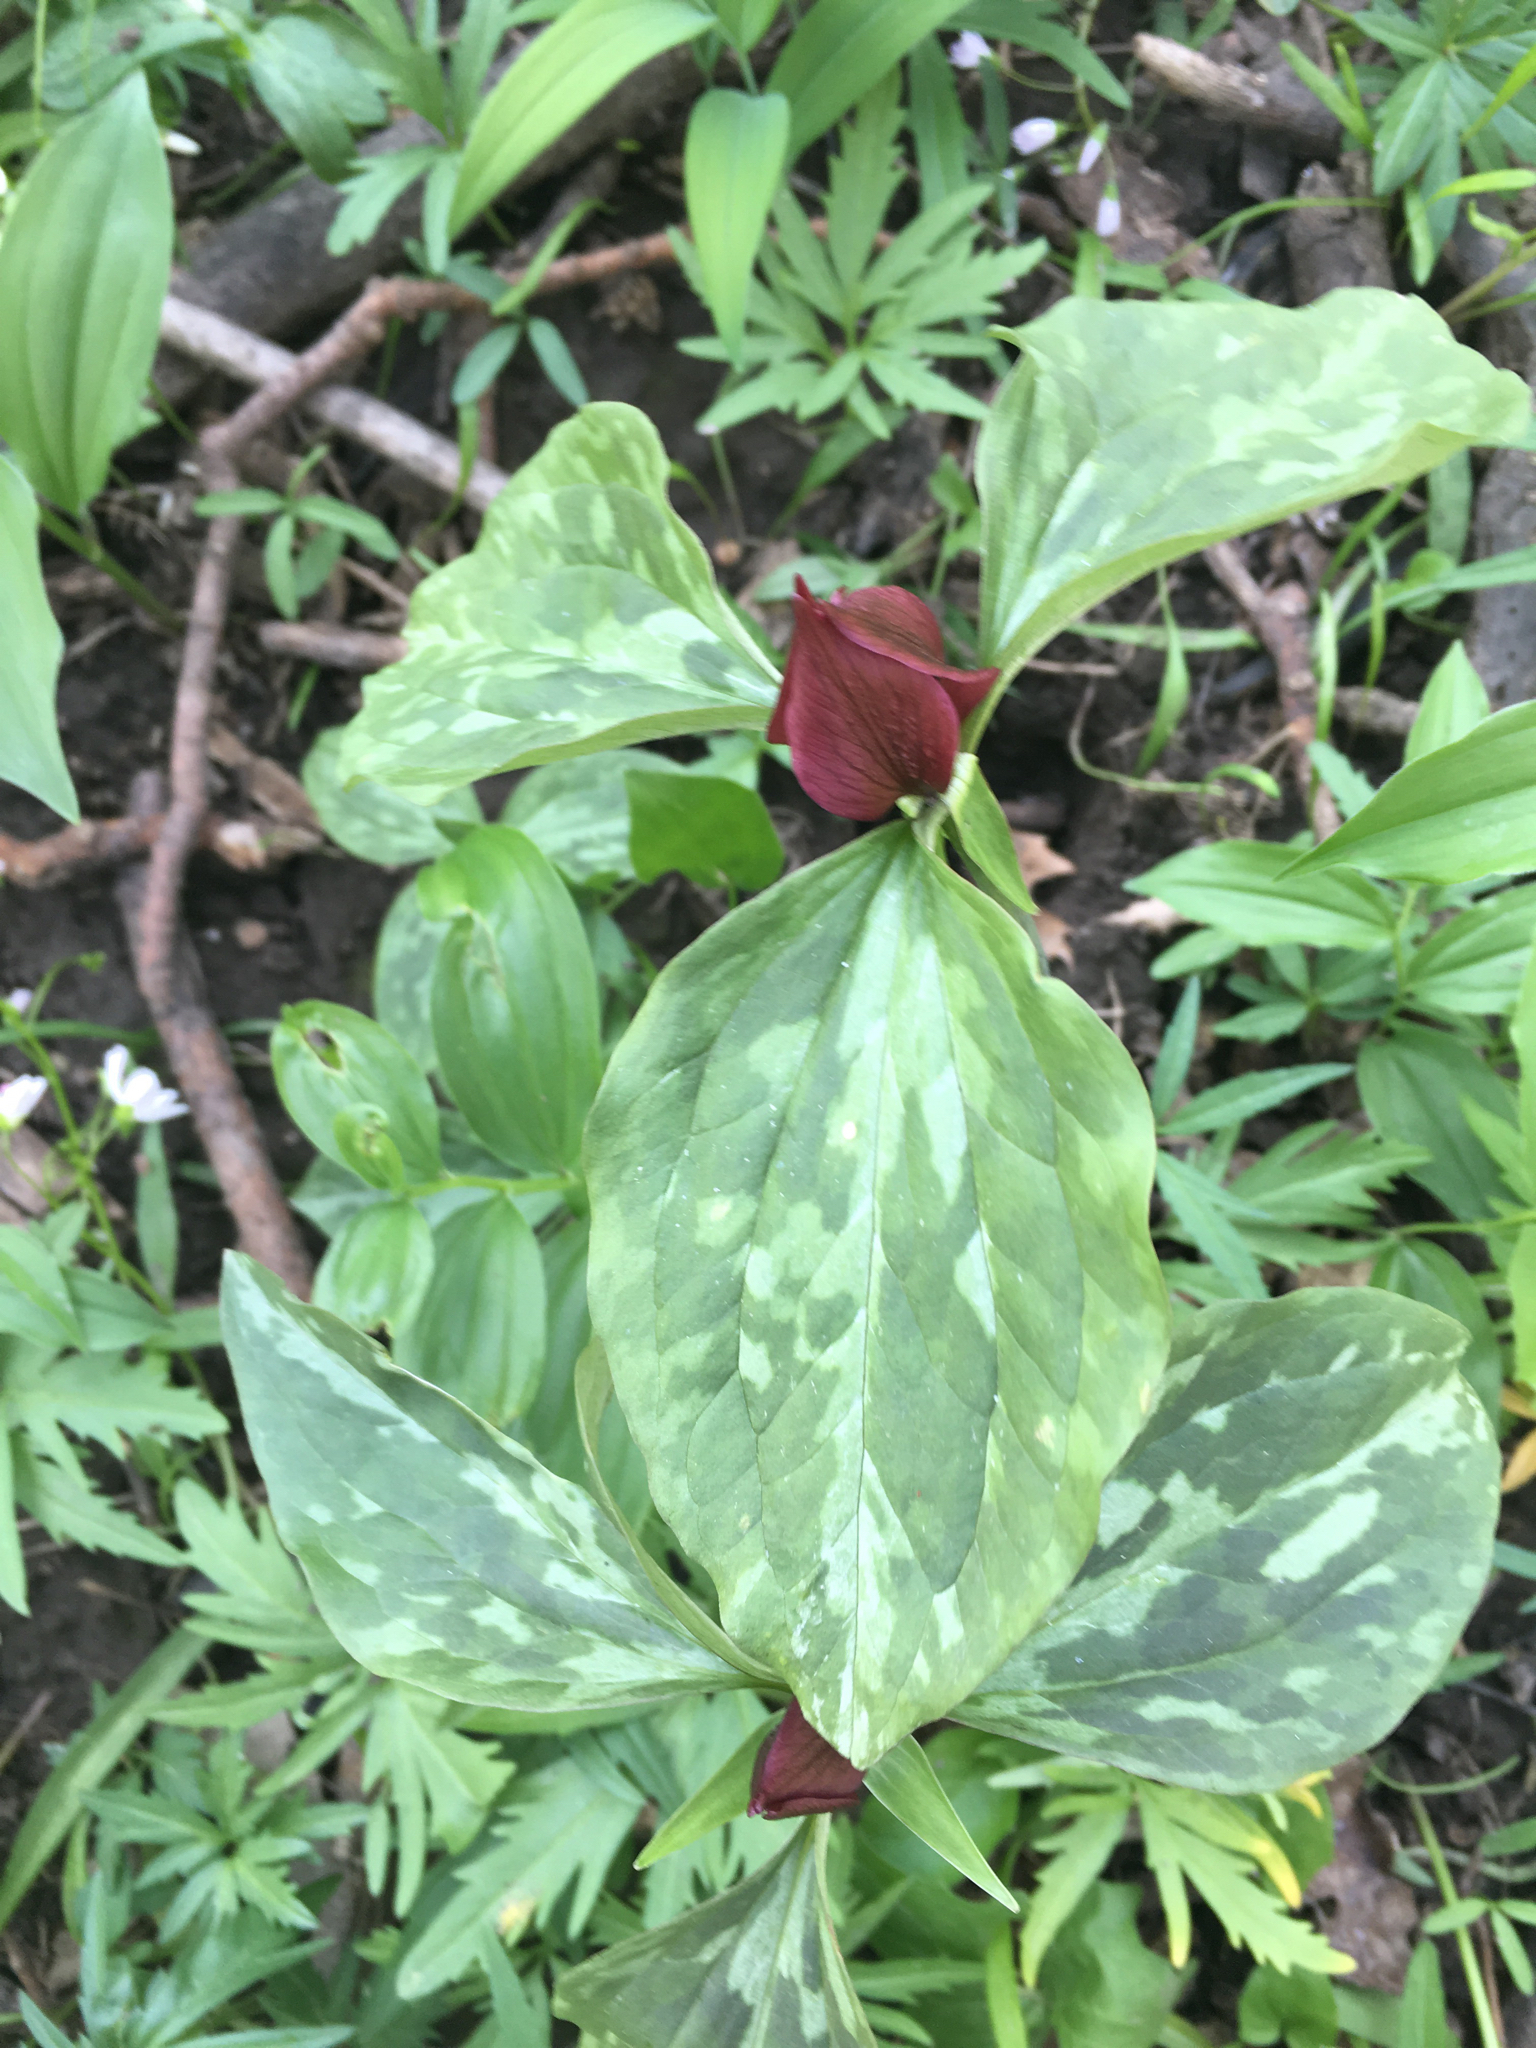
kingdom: Plantae
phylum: Tracheophyta
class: Liliopsida
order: Liliales
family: Melanthiaceae
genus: Trillium
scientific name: Trillium recurvatum
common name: Bloody butcher
